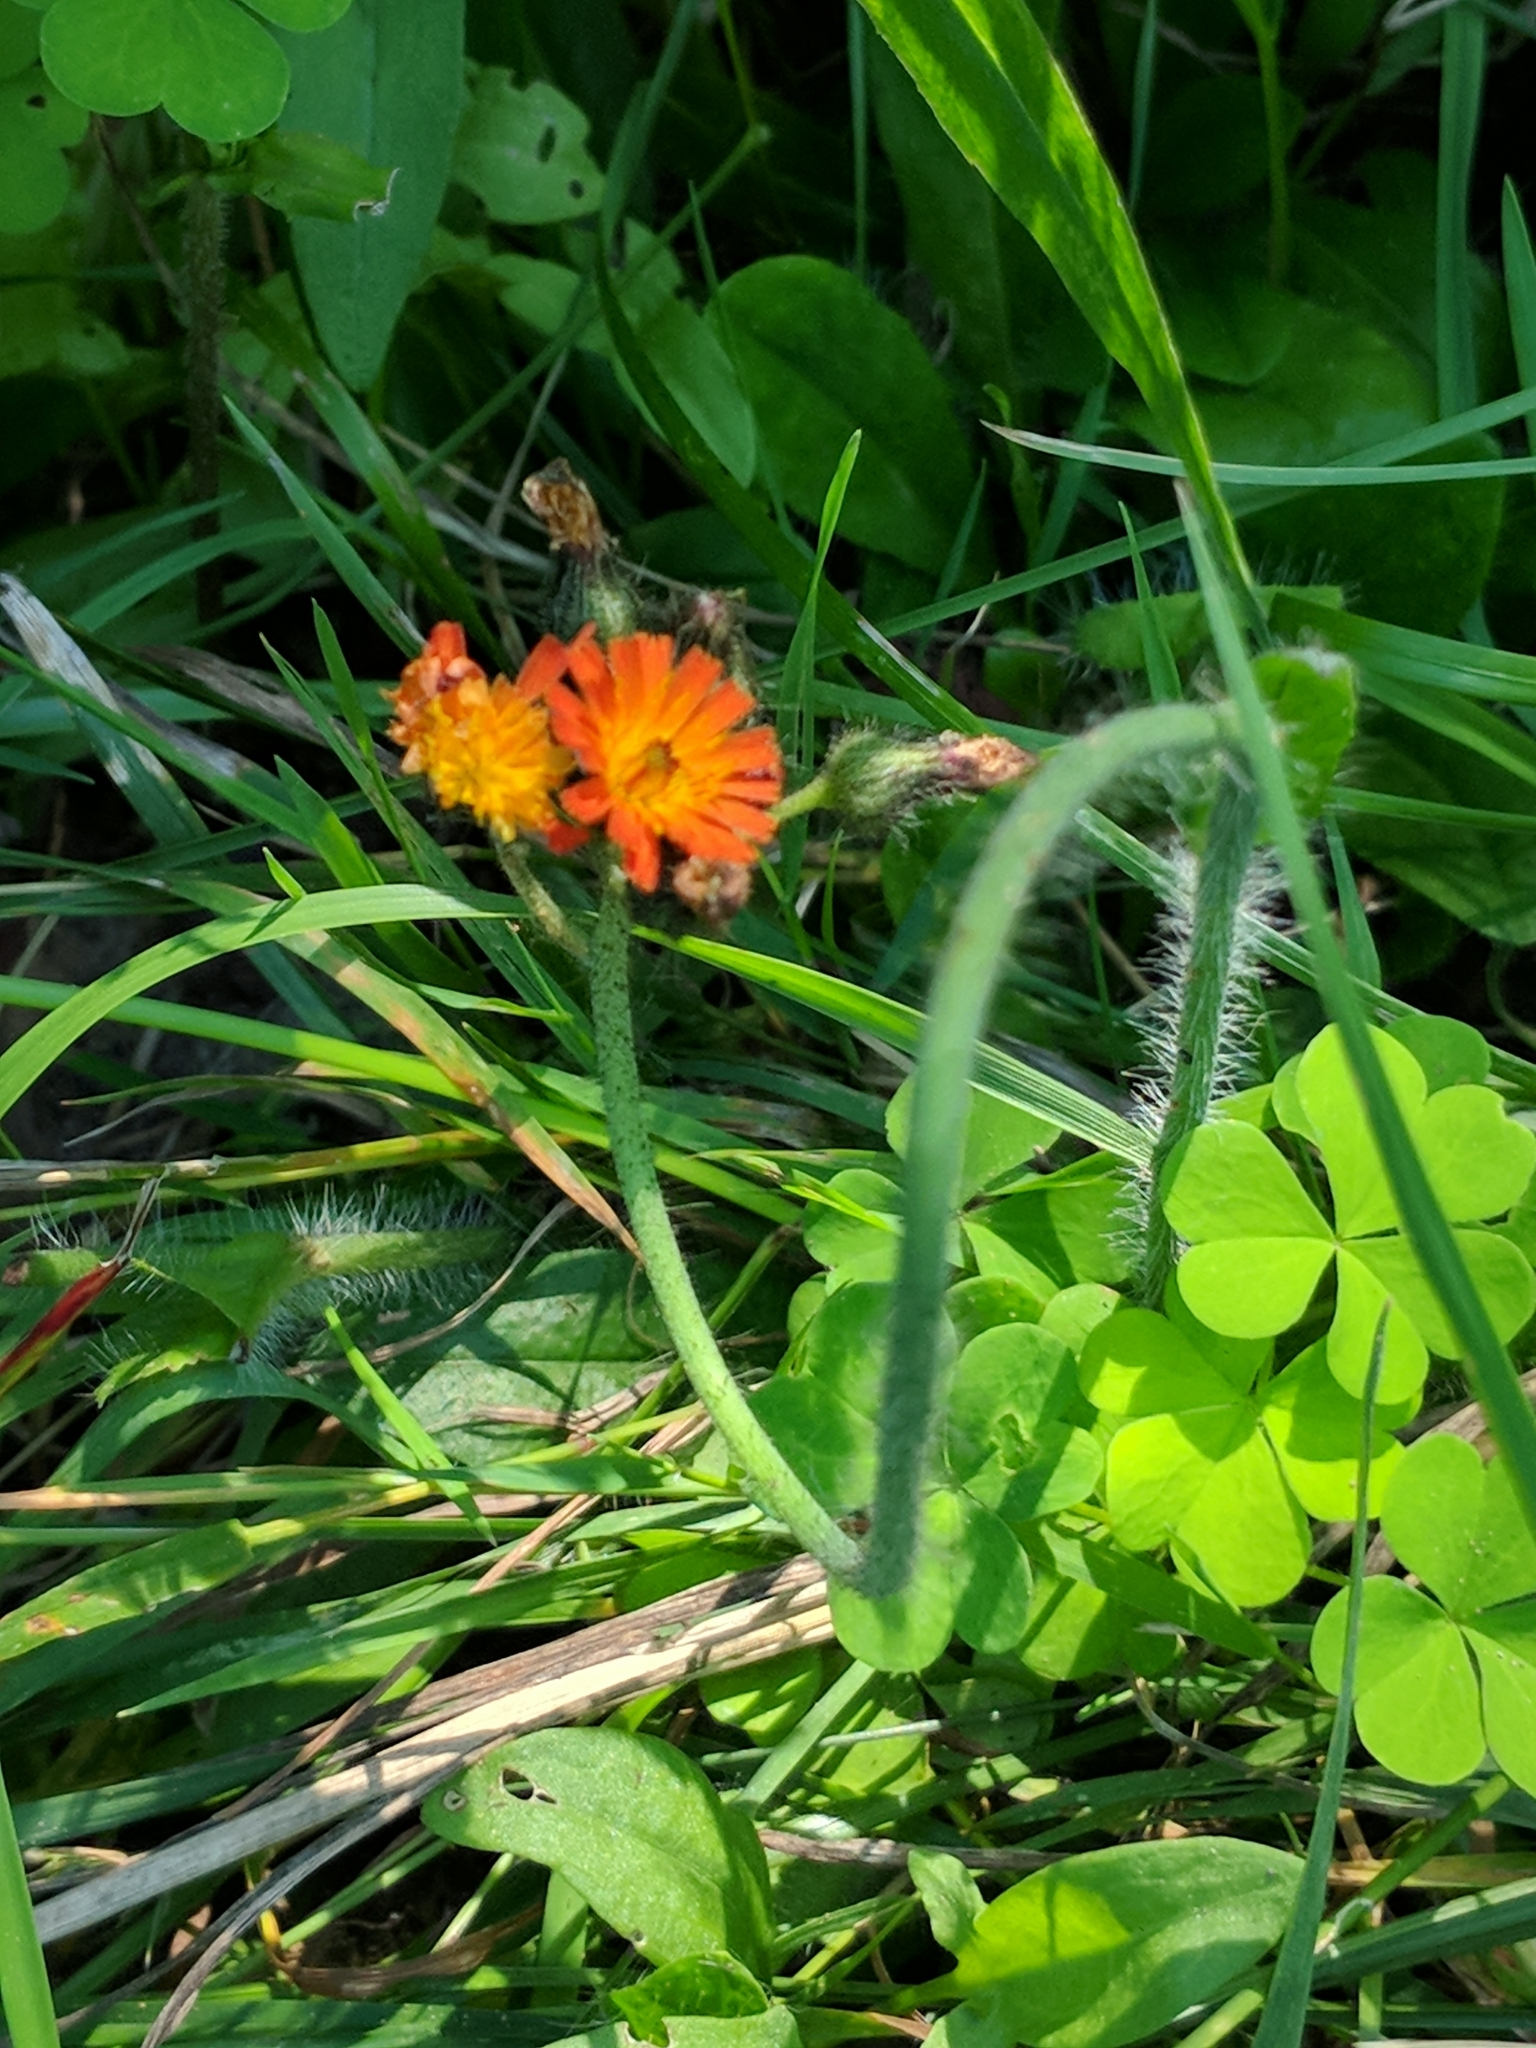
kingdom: Plantae
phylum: Tracheophyta
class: Magnoliopsida
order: Asterales
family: Asteraceae
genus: Pilosella
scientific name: Pilosella aurantiaca
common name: Fox-and-cubs
